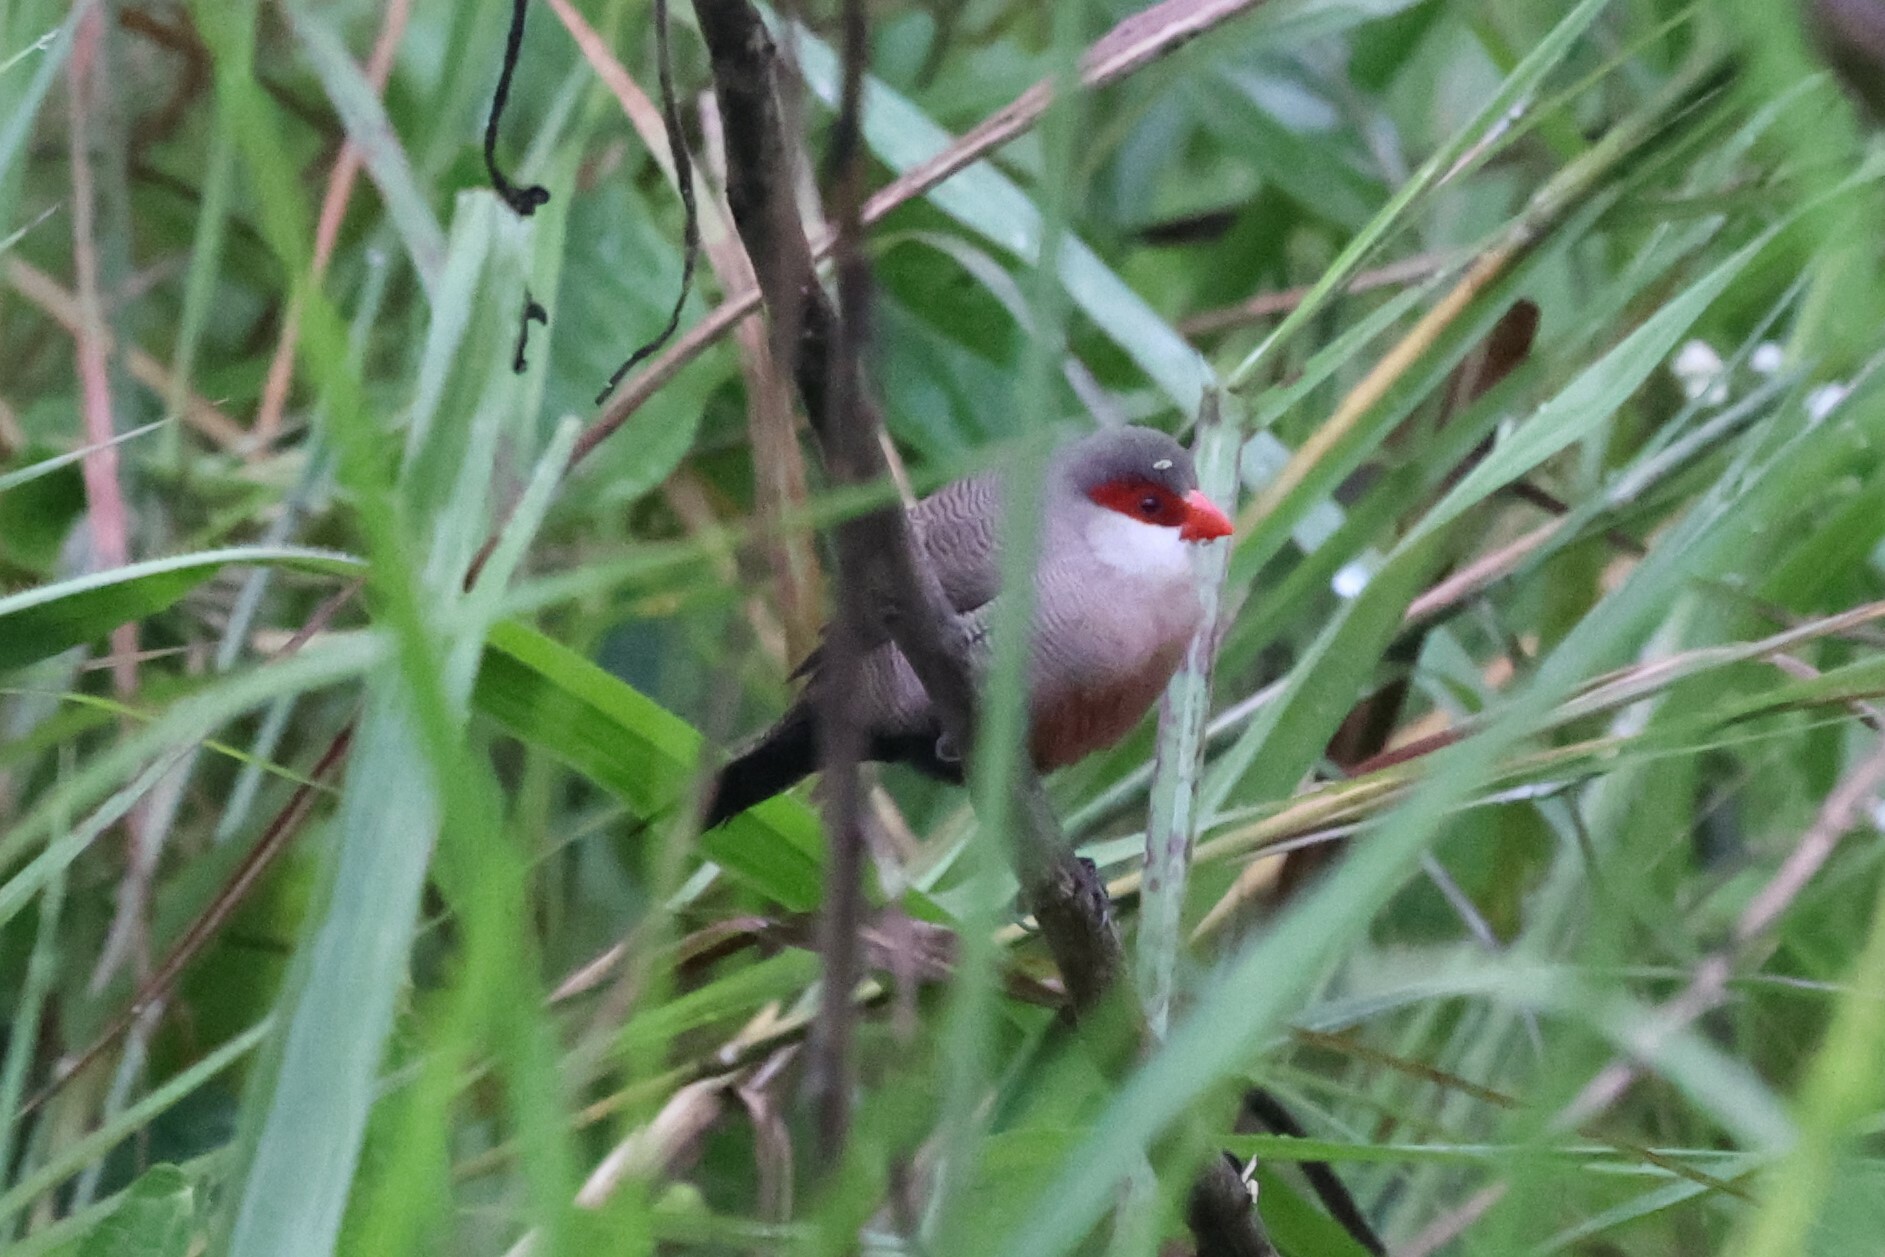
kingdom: Animalia
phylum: Chordata
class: Aves
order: Passeriformes
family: Estrildidae
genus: Estrilda
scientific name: Estrilda astrild
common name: Common waxbill
